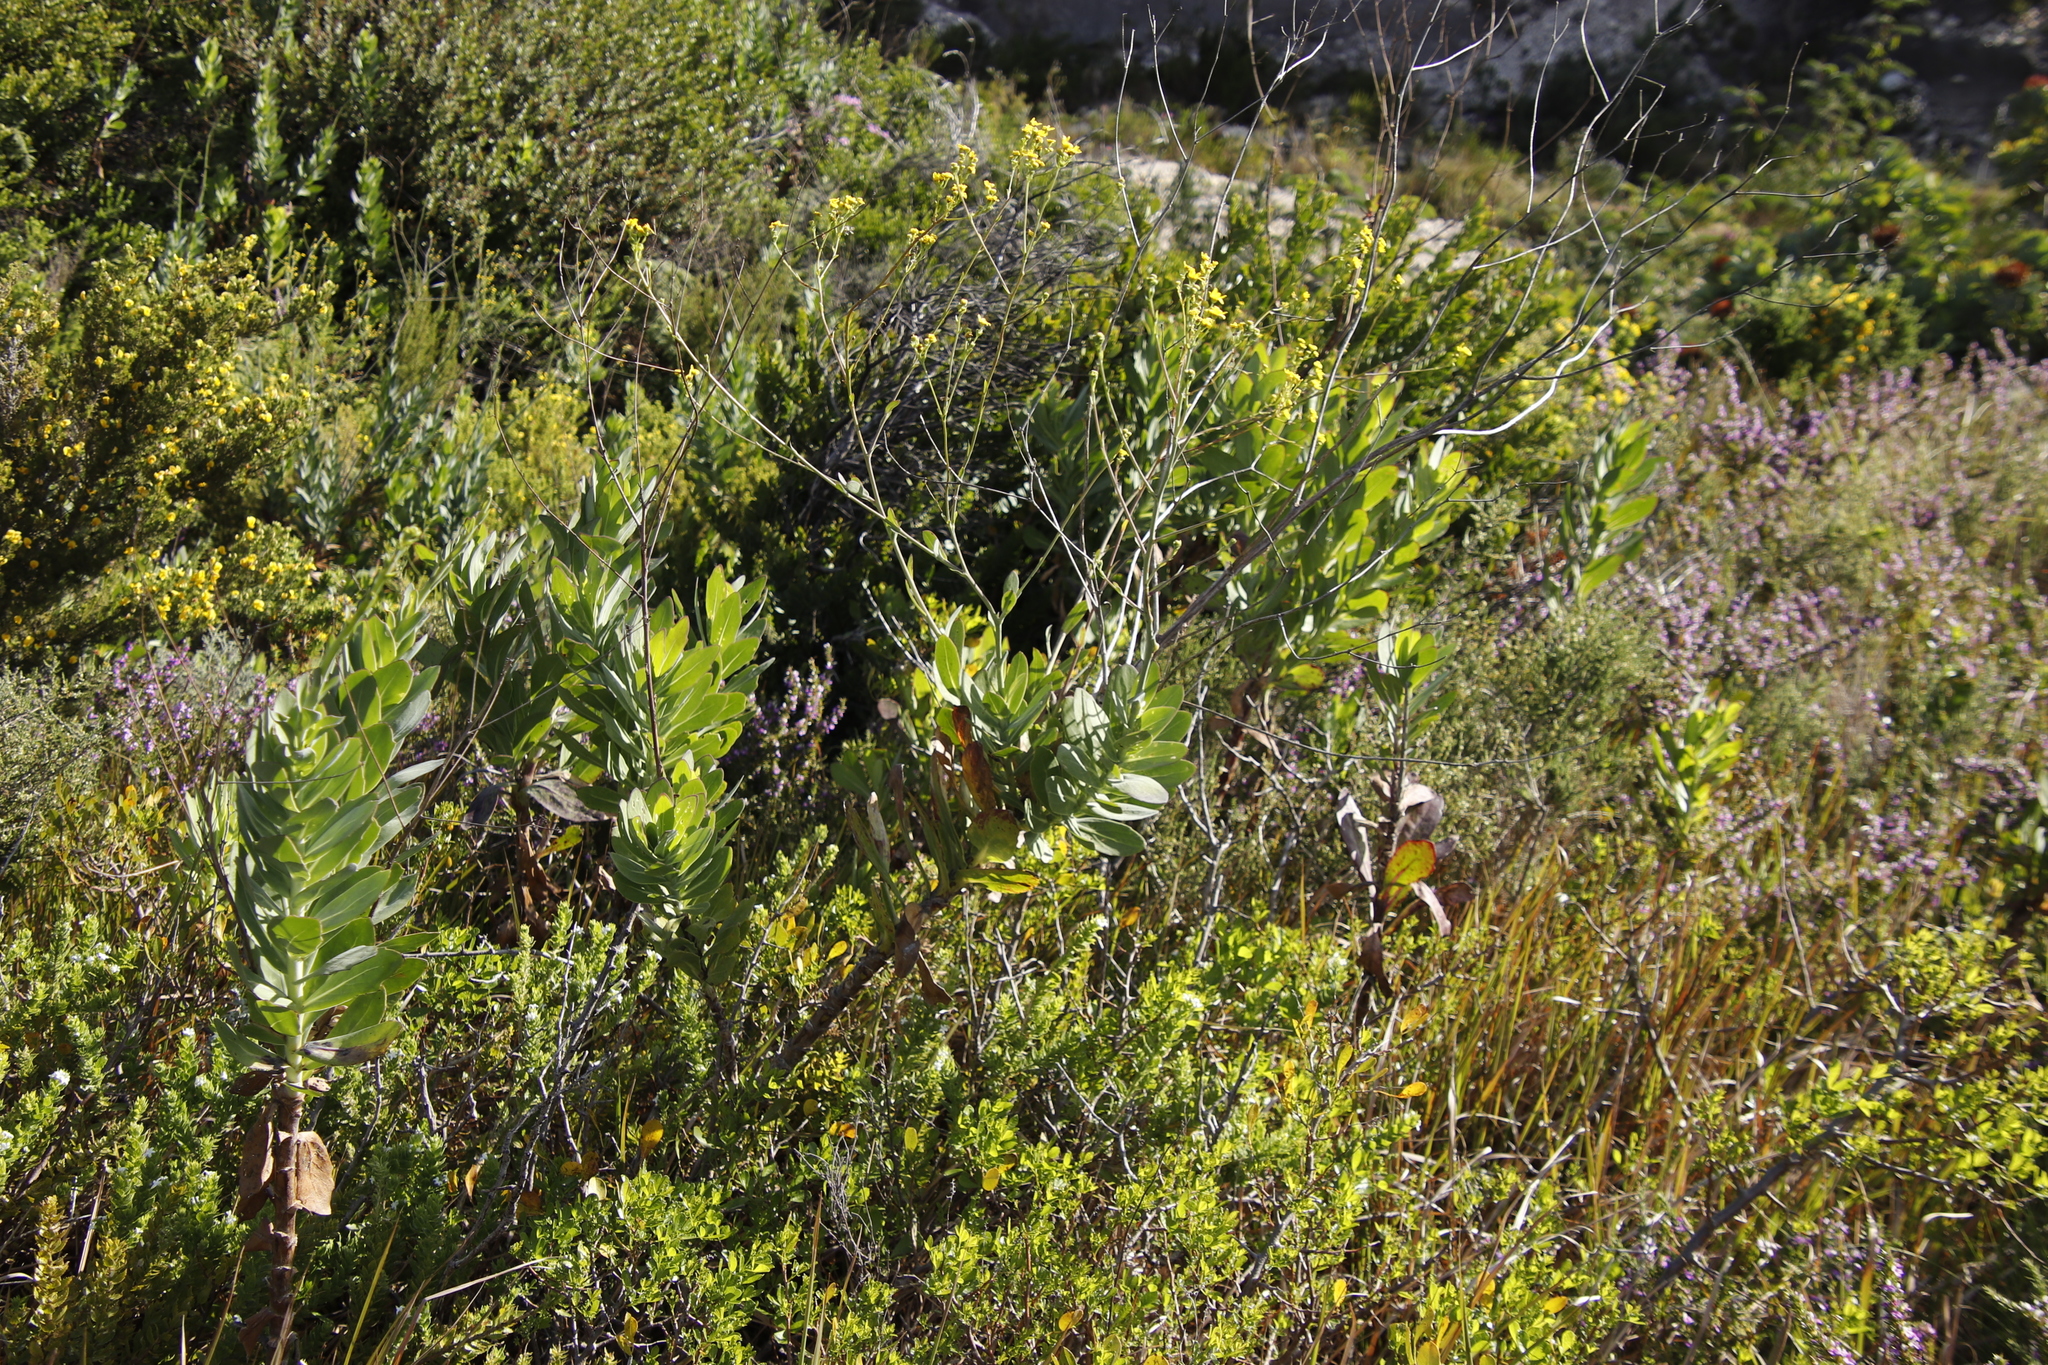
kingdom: Plantae
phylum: Tracheophyta
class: Magnoliopsida
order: Asterales
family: Asteraceae
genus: Othonna
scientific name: Othonna quinquedentata
